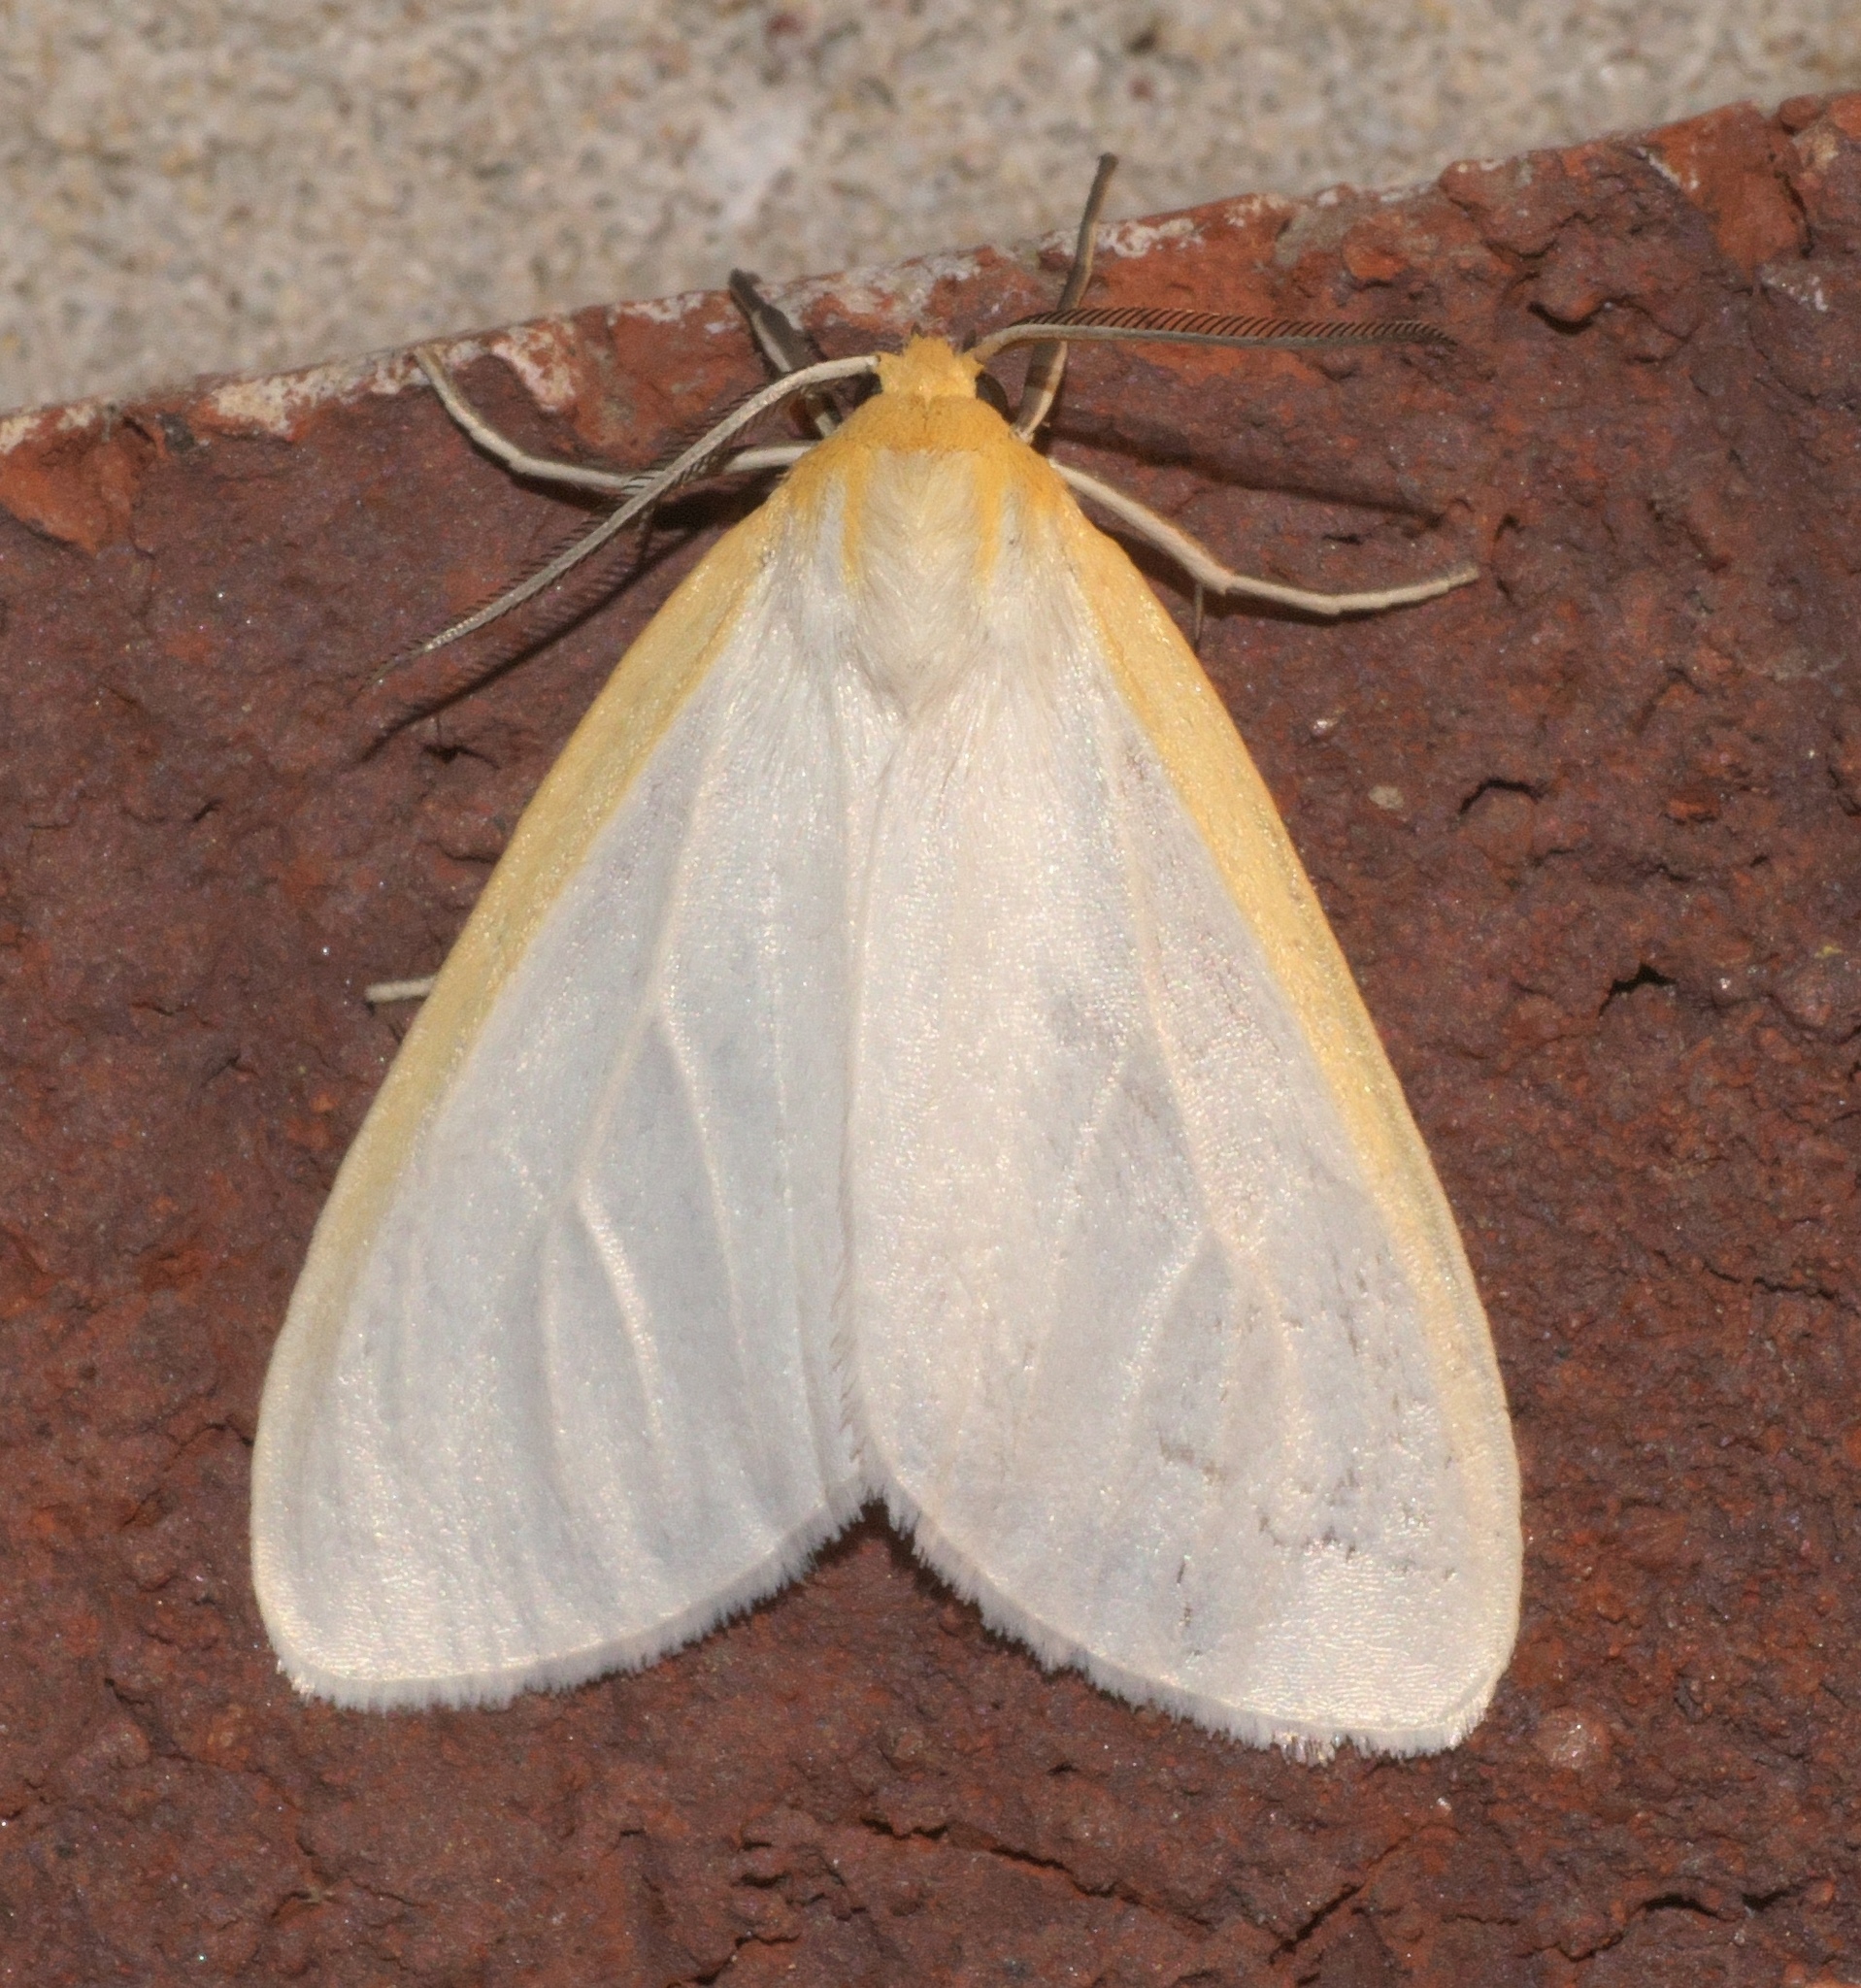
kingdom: Animalia
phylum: Arthropoda
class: Insecta
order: Lepidoptera
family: Erebidae
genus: Cycnia
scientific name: Cycnia tenera
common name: Delicate cycnia moth
